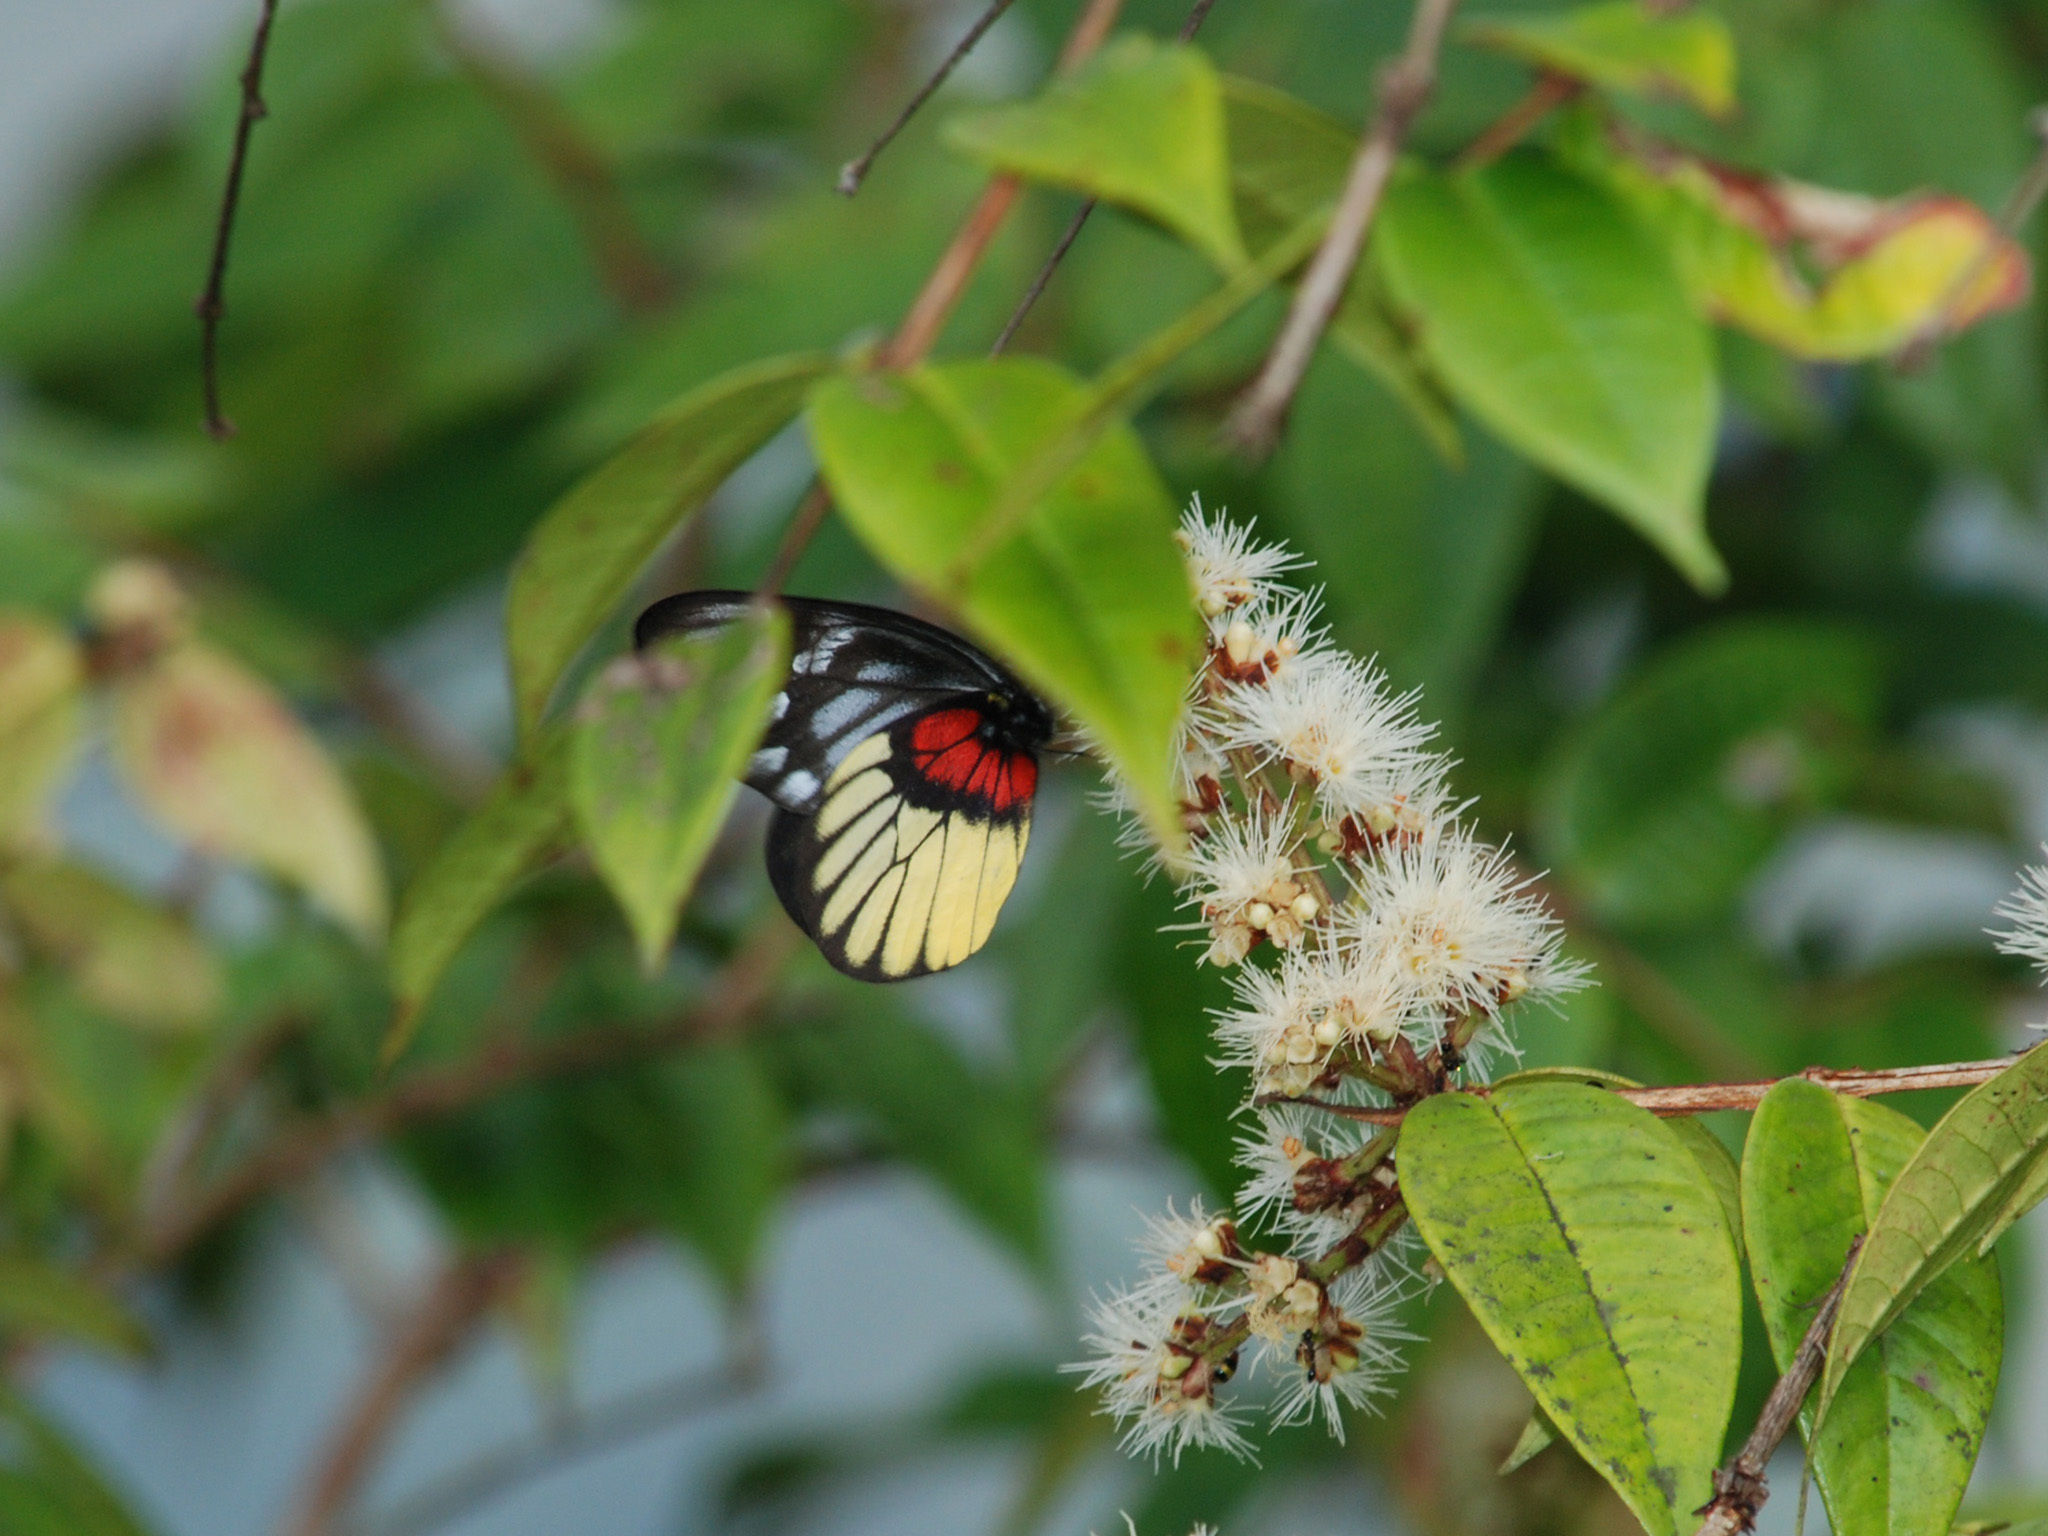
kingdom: Animalia
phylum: Arthropoda
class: Insecta
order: Lepidoptera
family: Pieridae
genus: Delias
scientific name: Delias ninus
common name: Malayan jezebel
